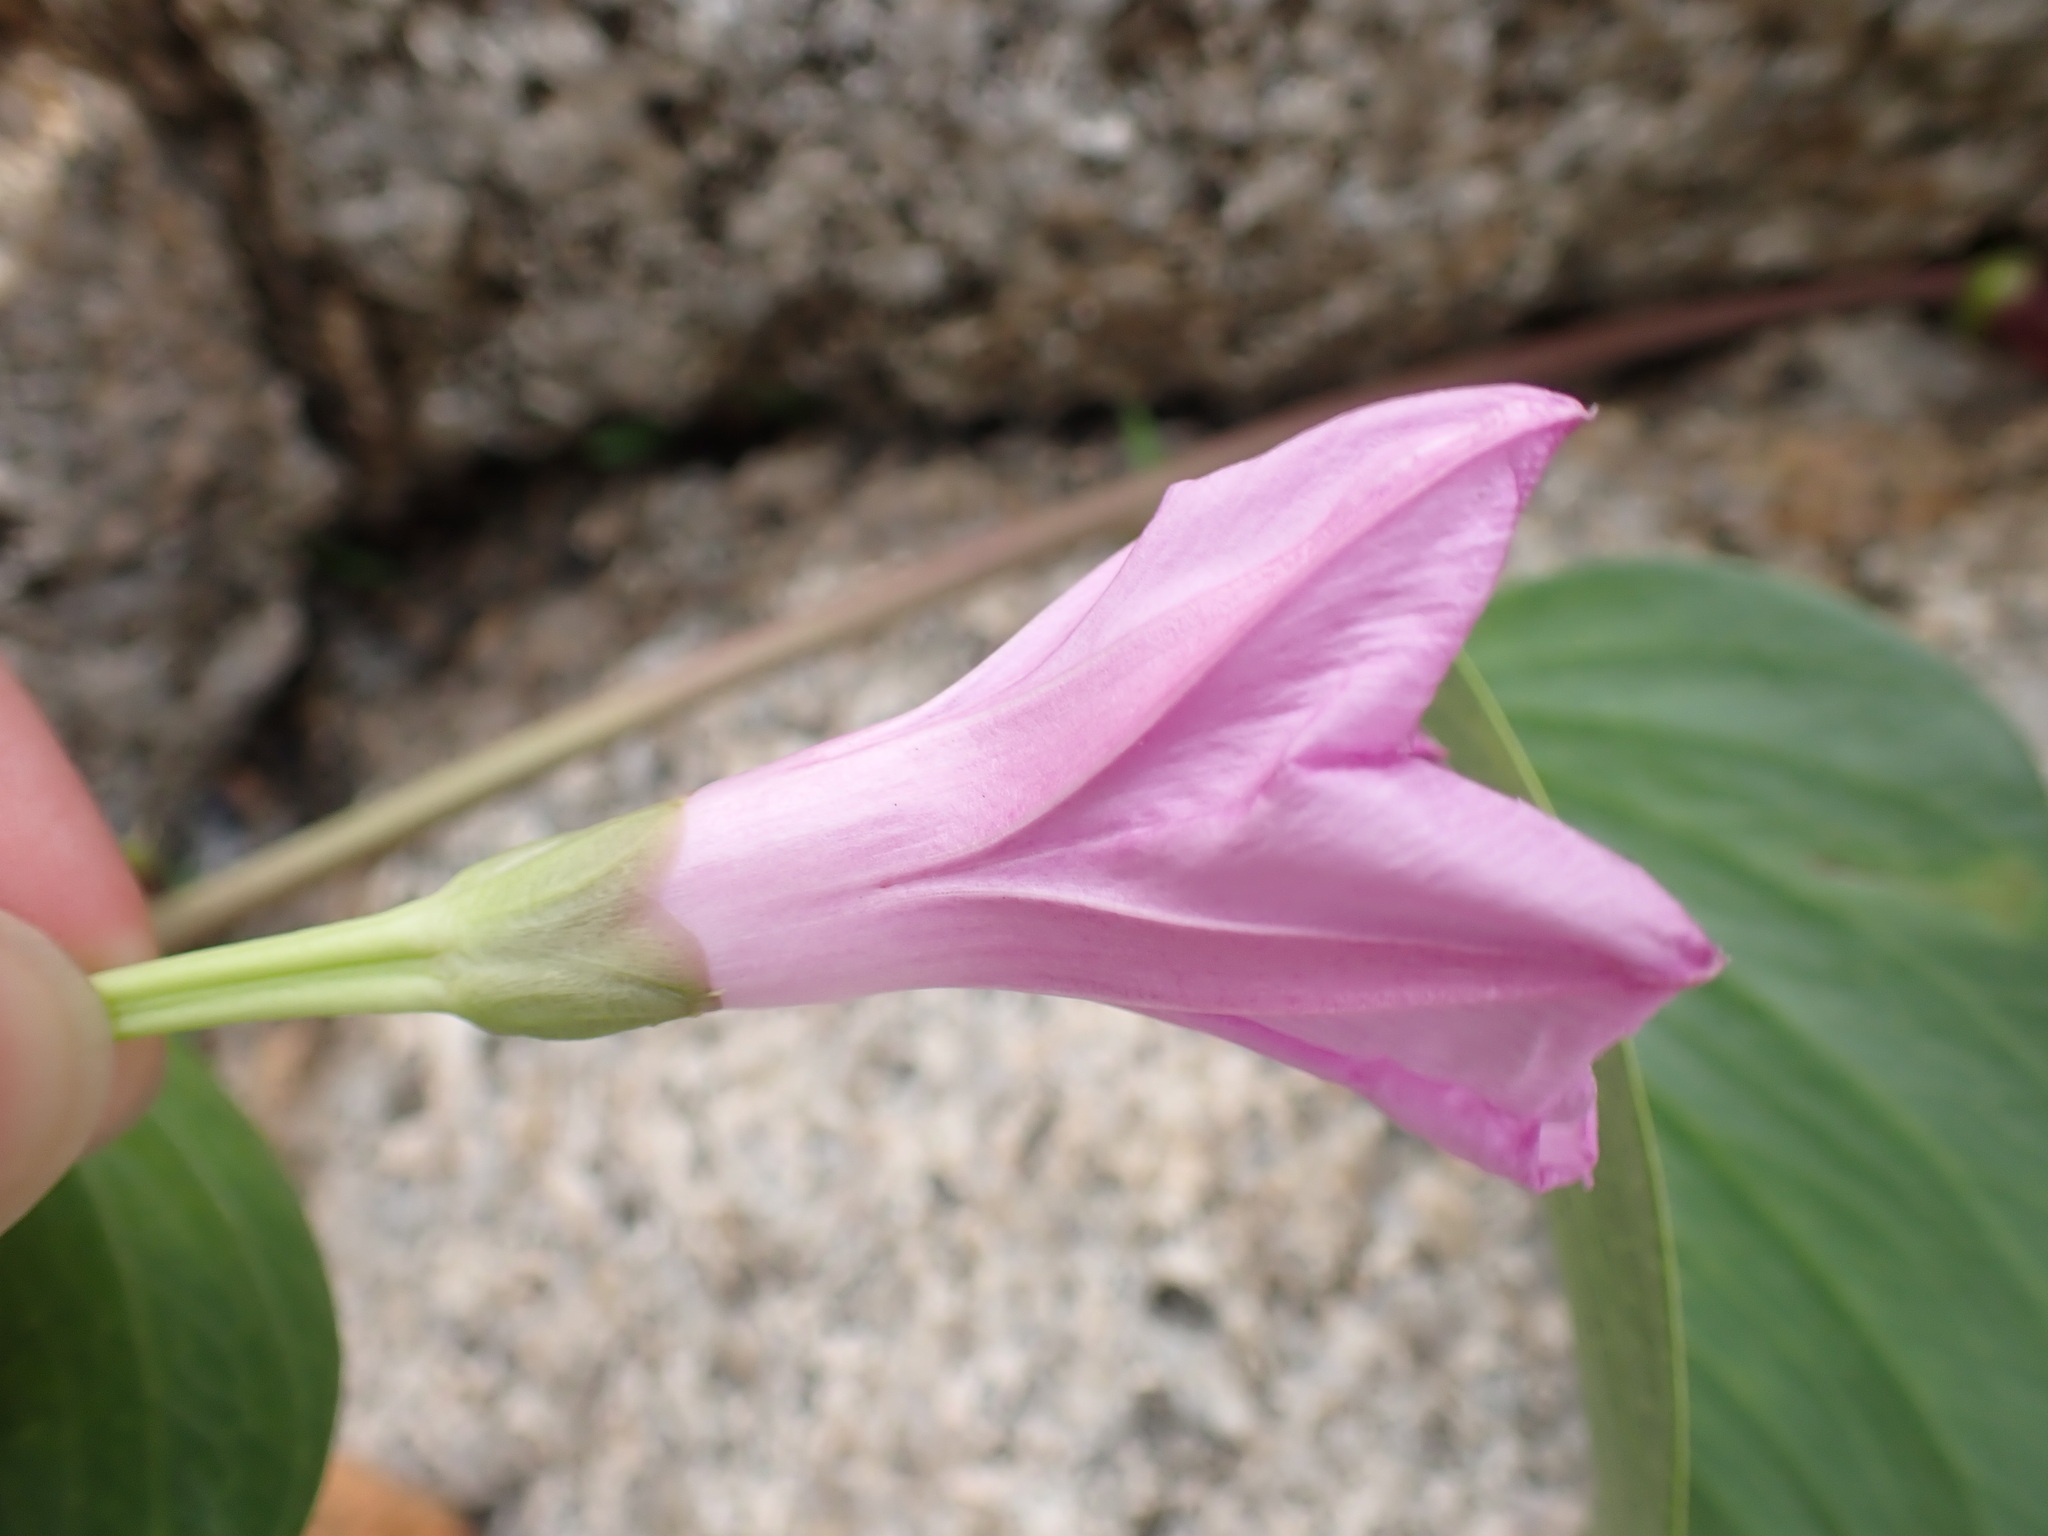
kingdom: Plantae
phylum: Tracheophyta
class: Magnoliopsida
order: Solanales
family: Convolvulaceae
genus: Ipomoea
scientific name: Ipomoea pes-caprae
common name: Beach morning glory
